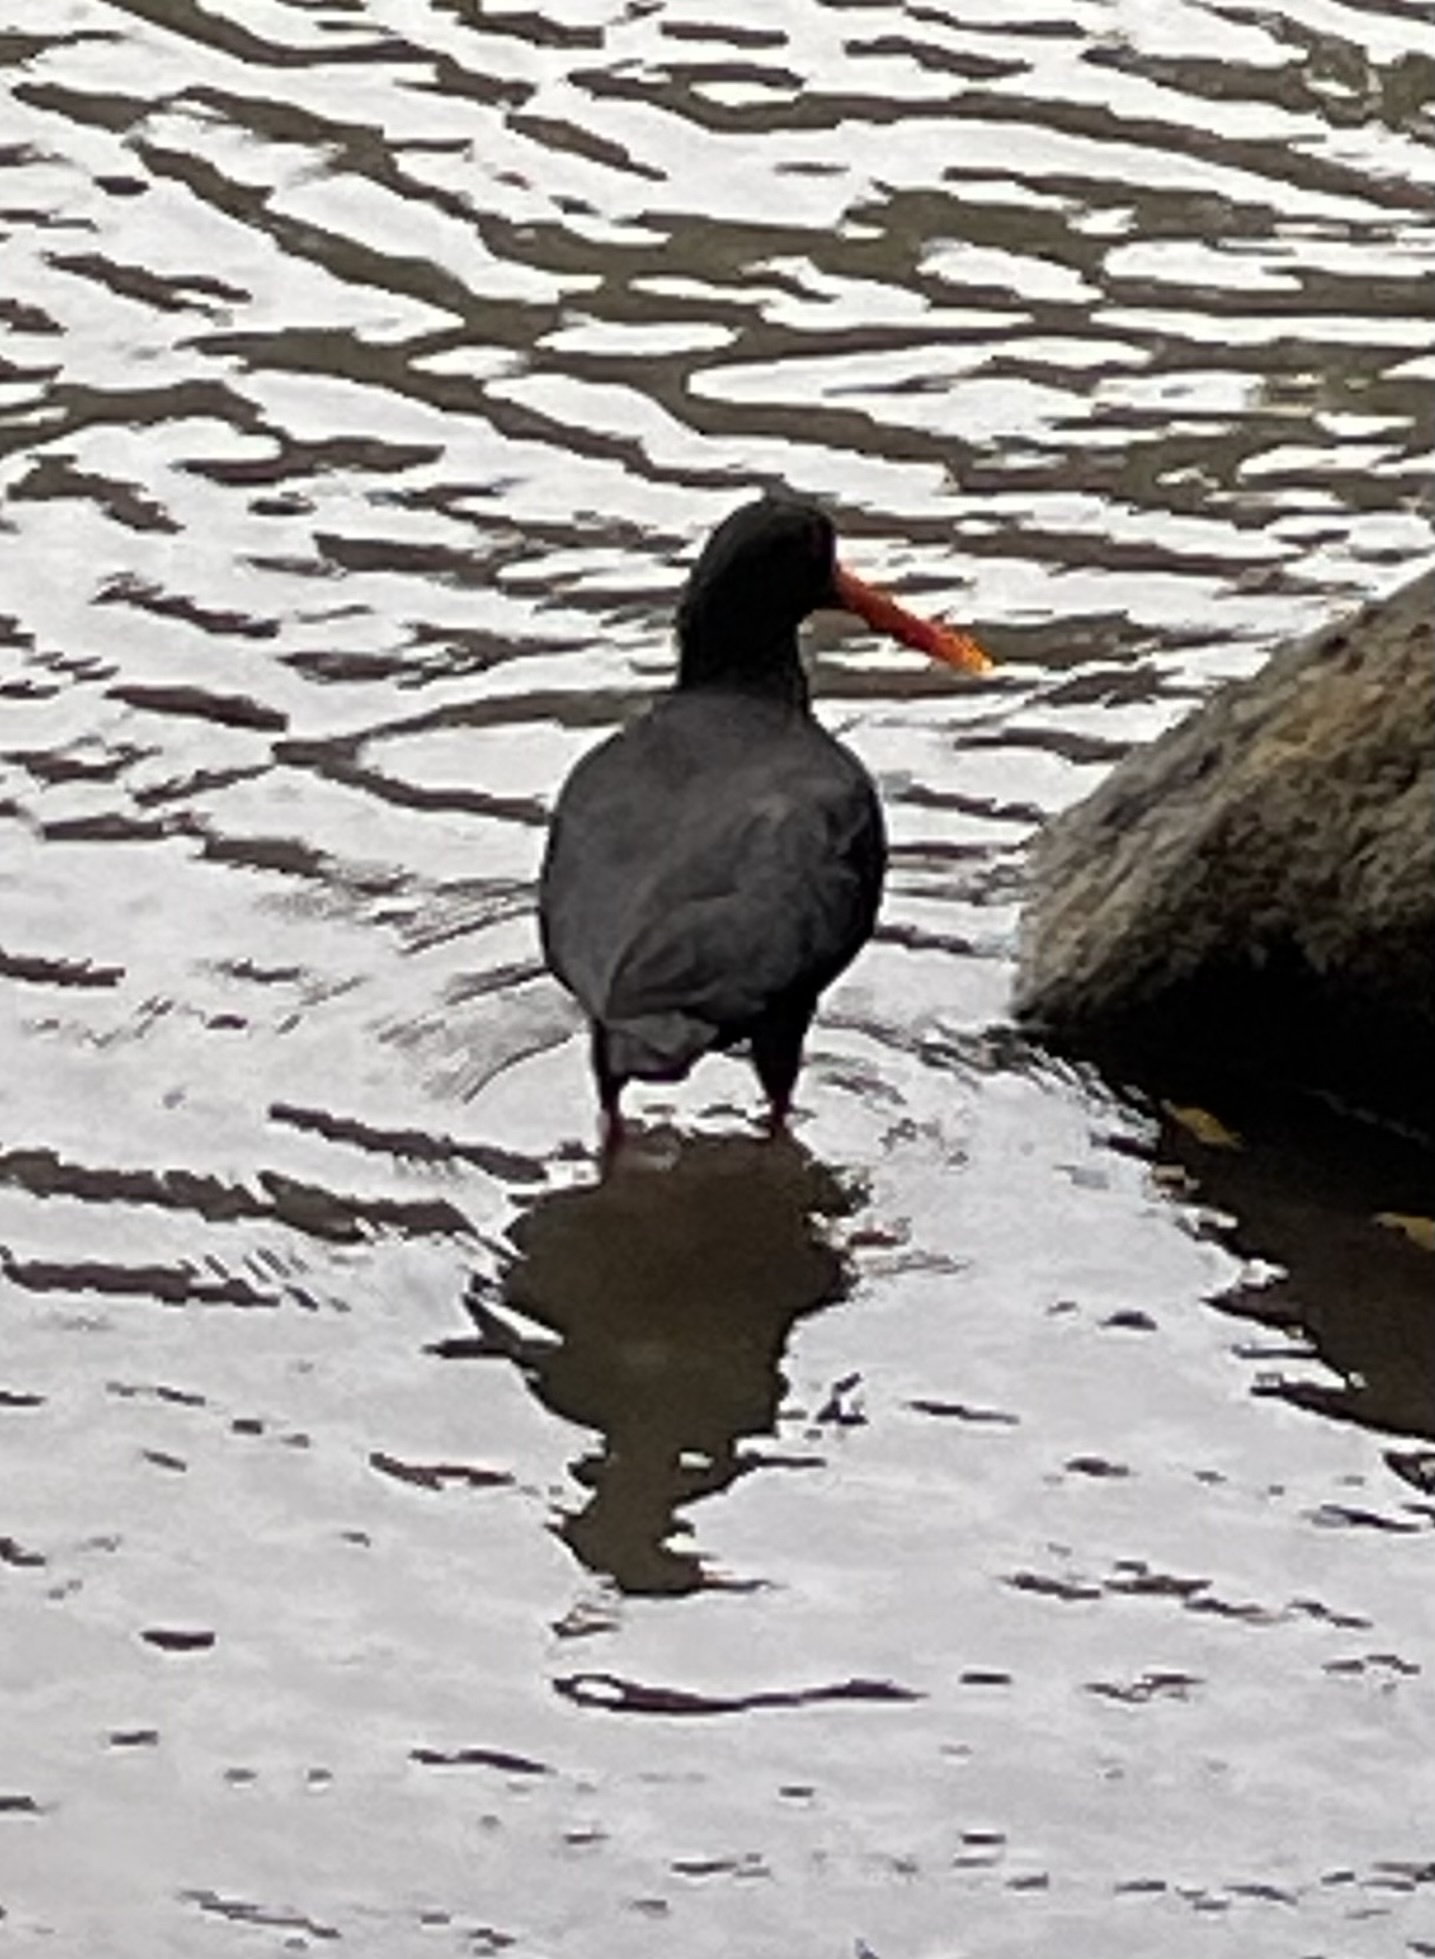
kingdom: Animalia
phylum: Chordata
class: Aves
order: Charadriiformes
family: Haematopodidae
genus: Haematopus
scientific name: Haematopus unicolor
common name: Variable oystercatcher
